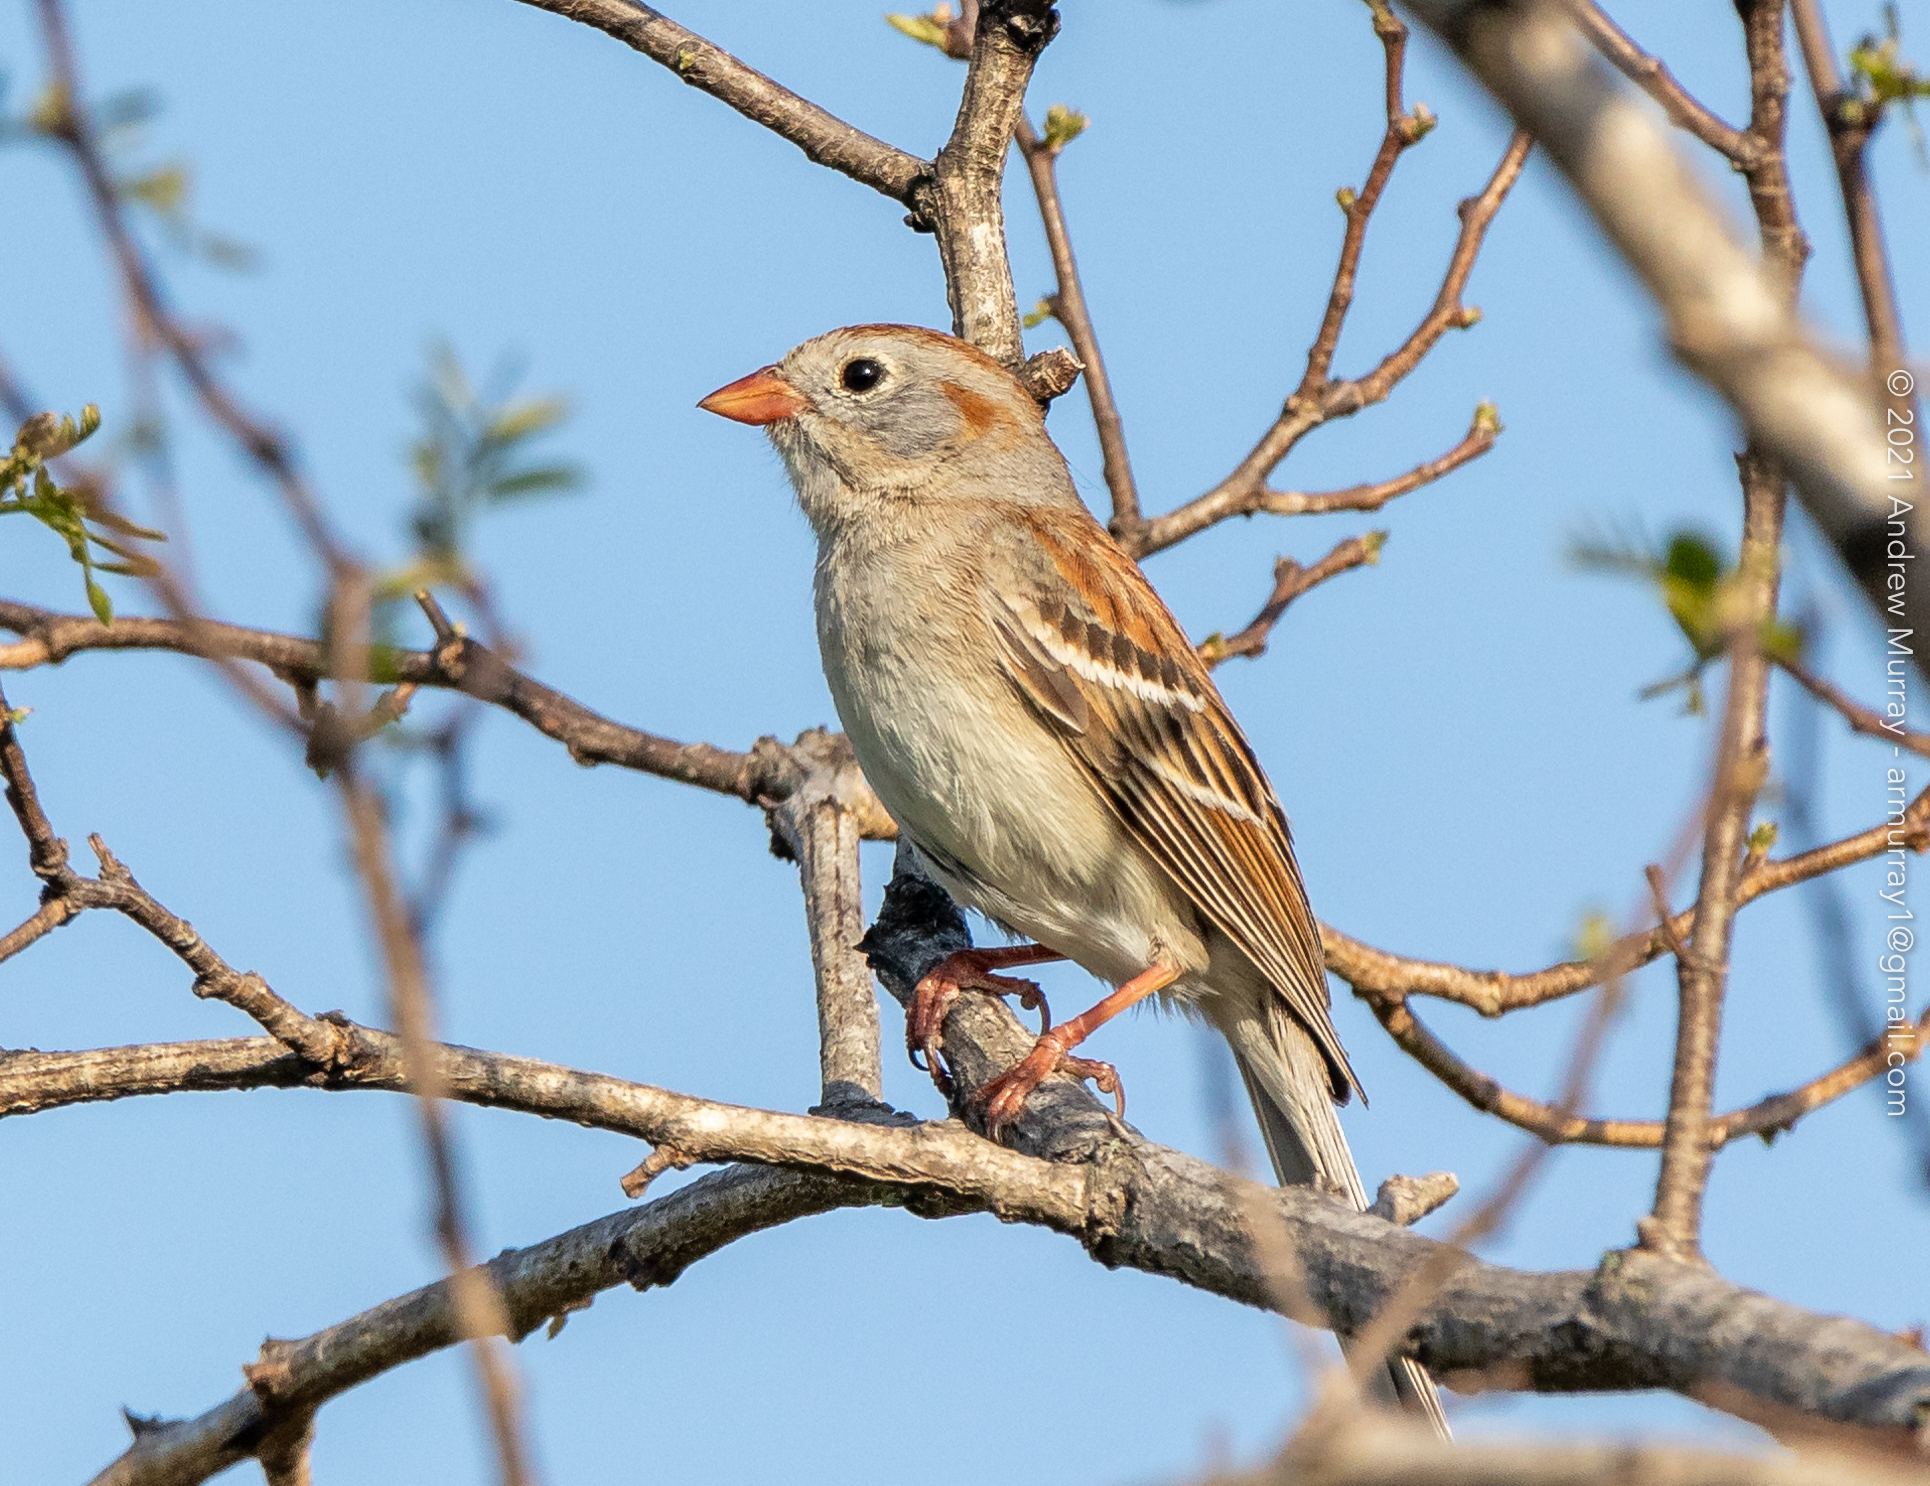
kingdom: Animalia
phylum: Chordata
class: Aves
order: Passeriformes
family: Passerellidae
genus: Spizella
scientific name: Spizella pusilla
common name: Field sparrow
